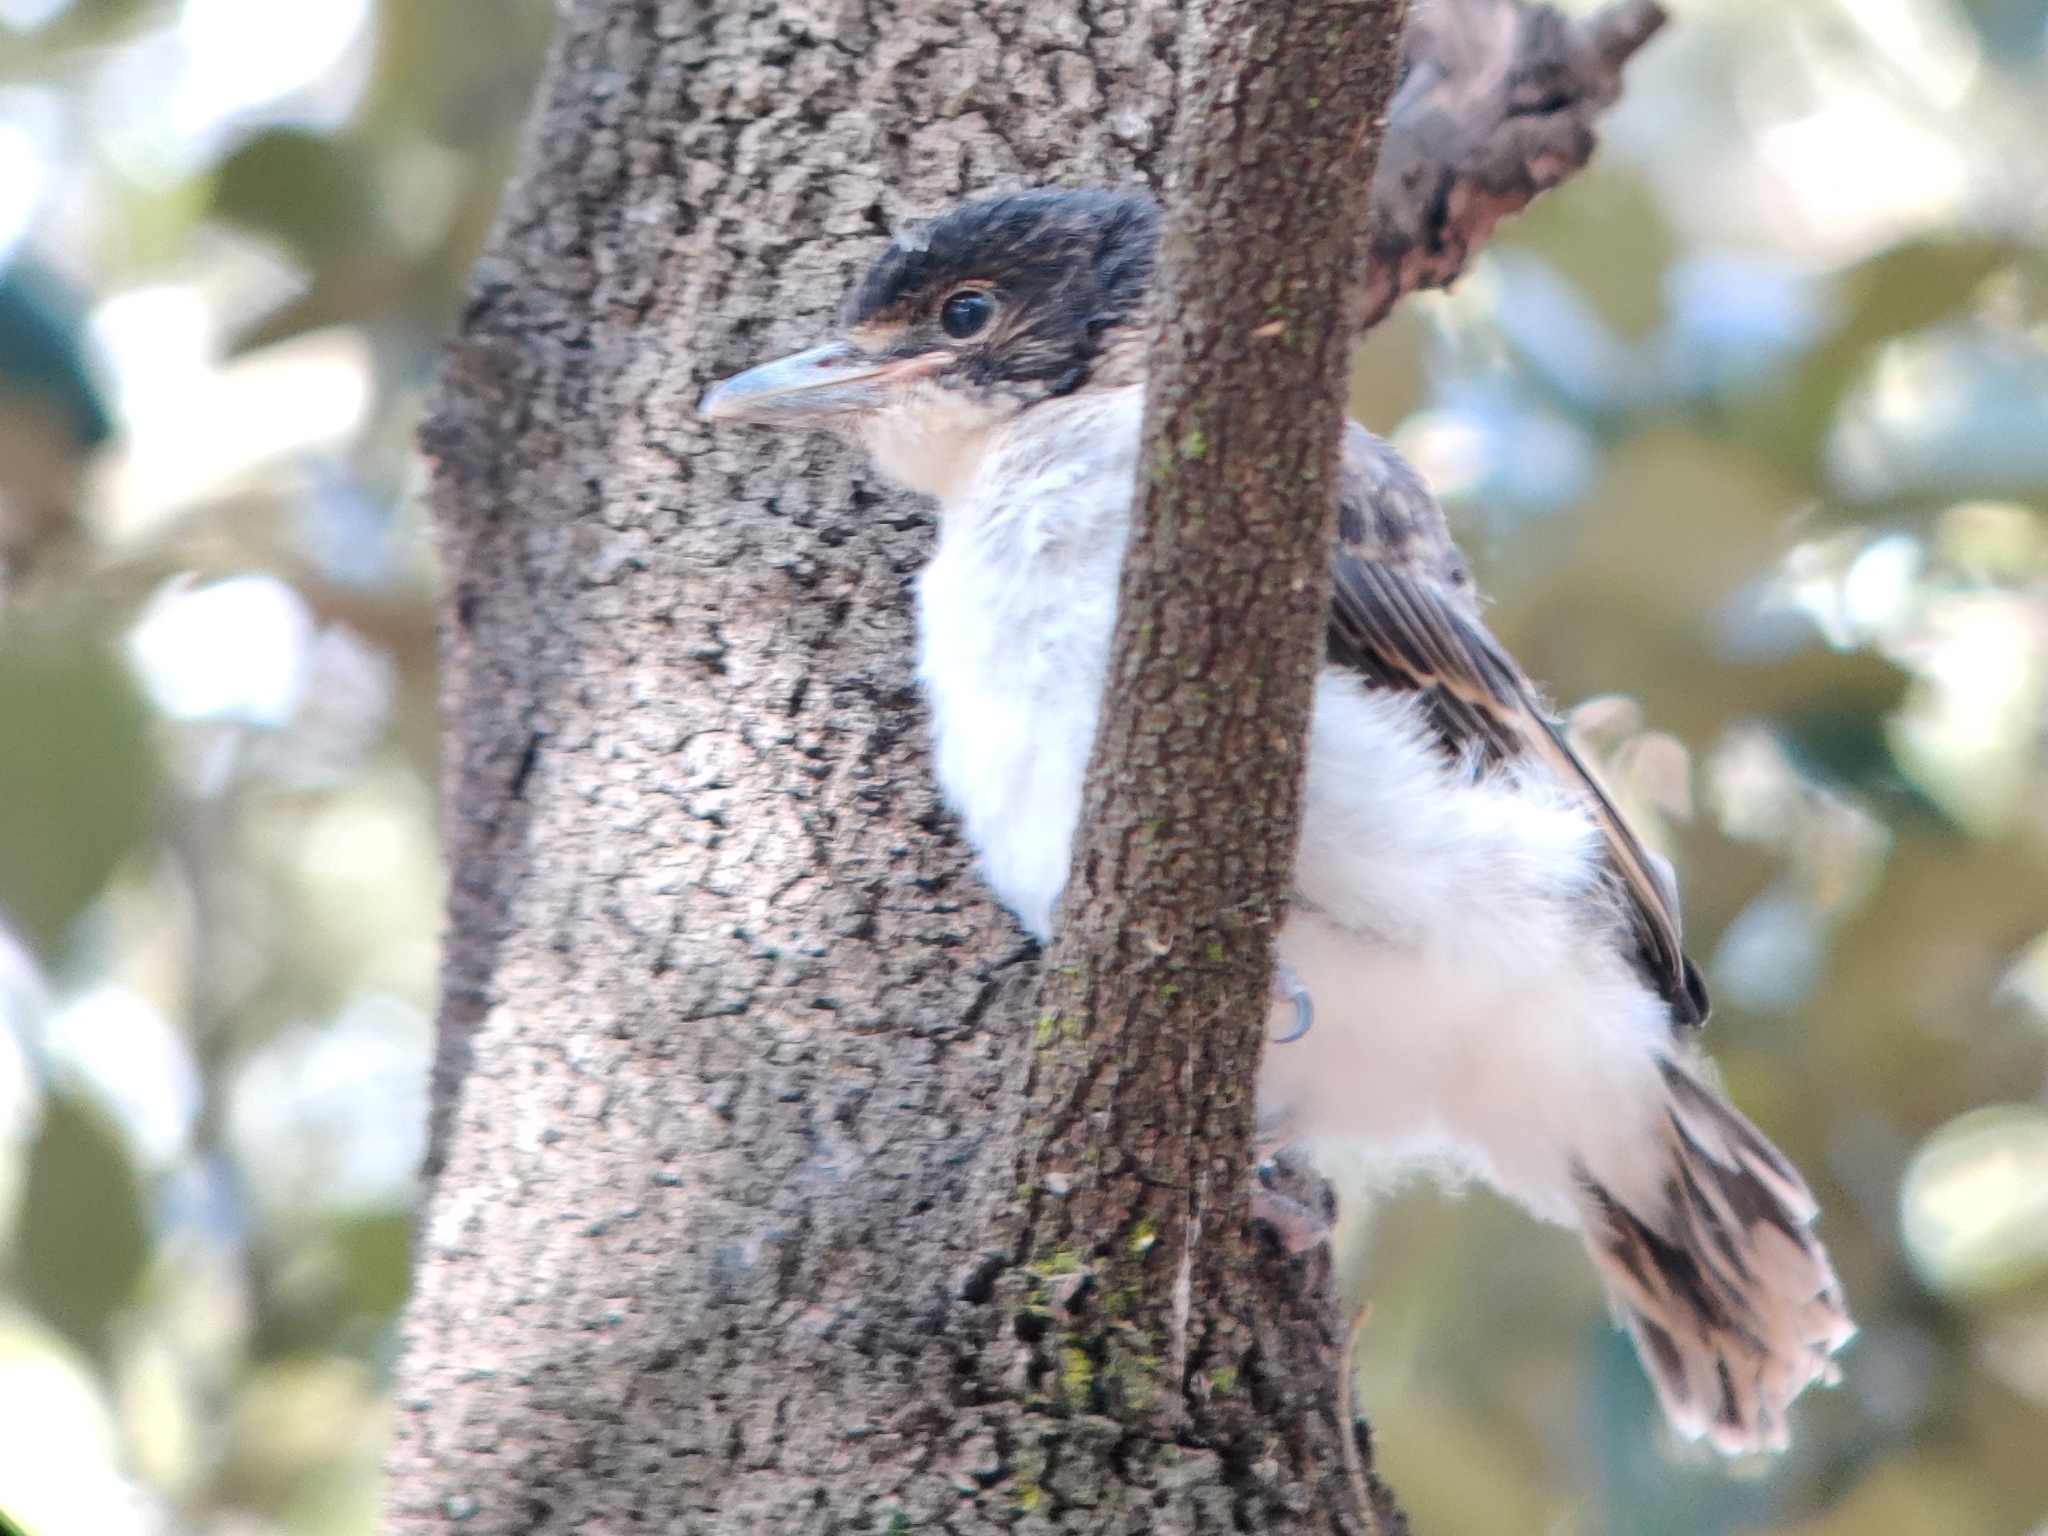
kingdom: Animalia
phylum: Chordata
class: Aves
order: Passeriformes
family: Cracticidae
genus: Cracticus
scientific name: Cracticus torquatus
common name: Grey butcherbird
